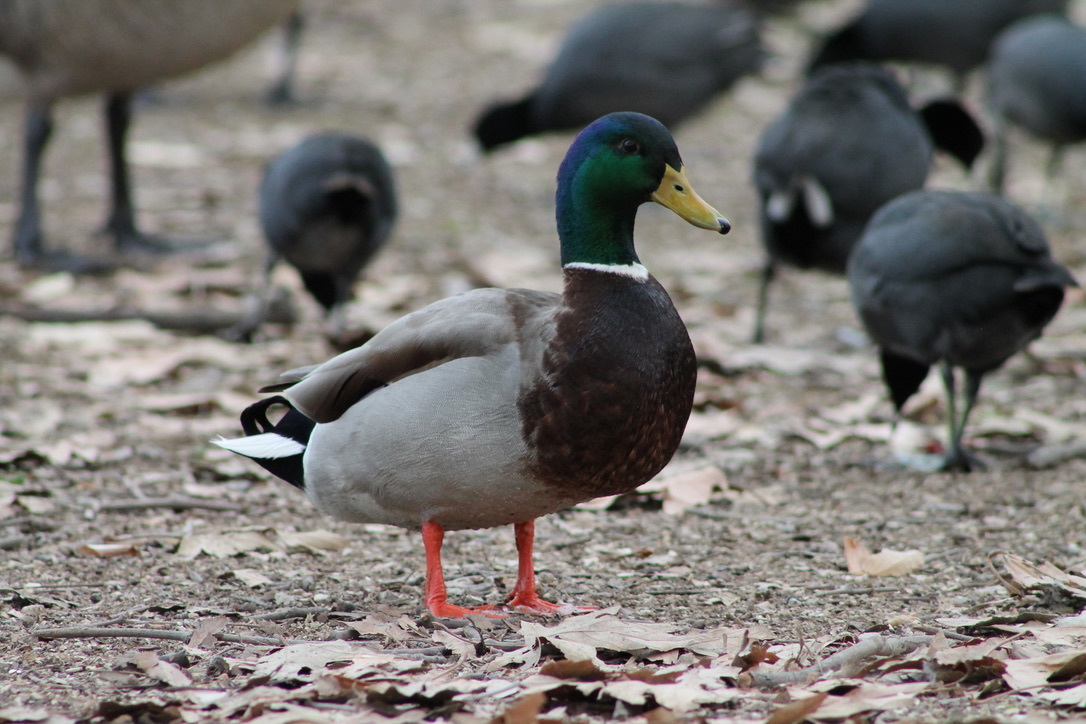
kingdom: Animalia
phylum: Chordata
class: Aves
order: Anseriformes
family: Anatidae
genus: Anas
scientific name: Anas platyrhynchos
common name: Mallard
